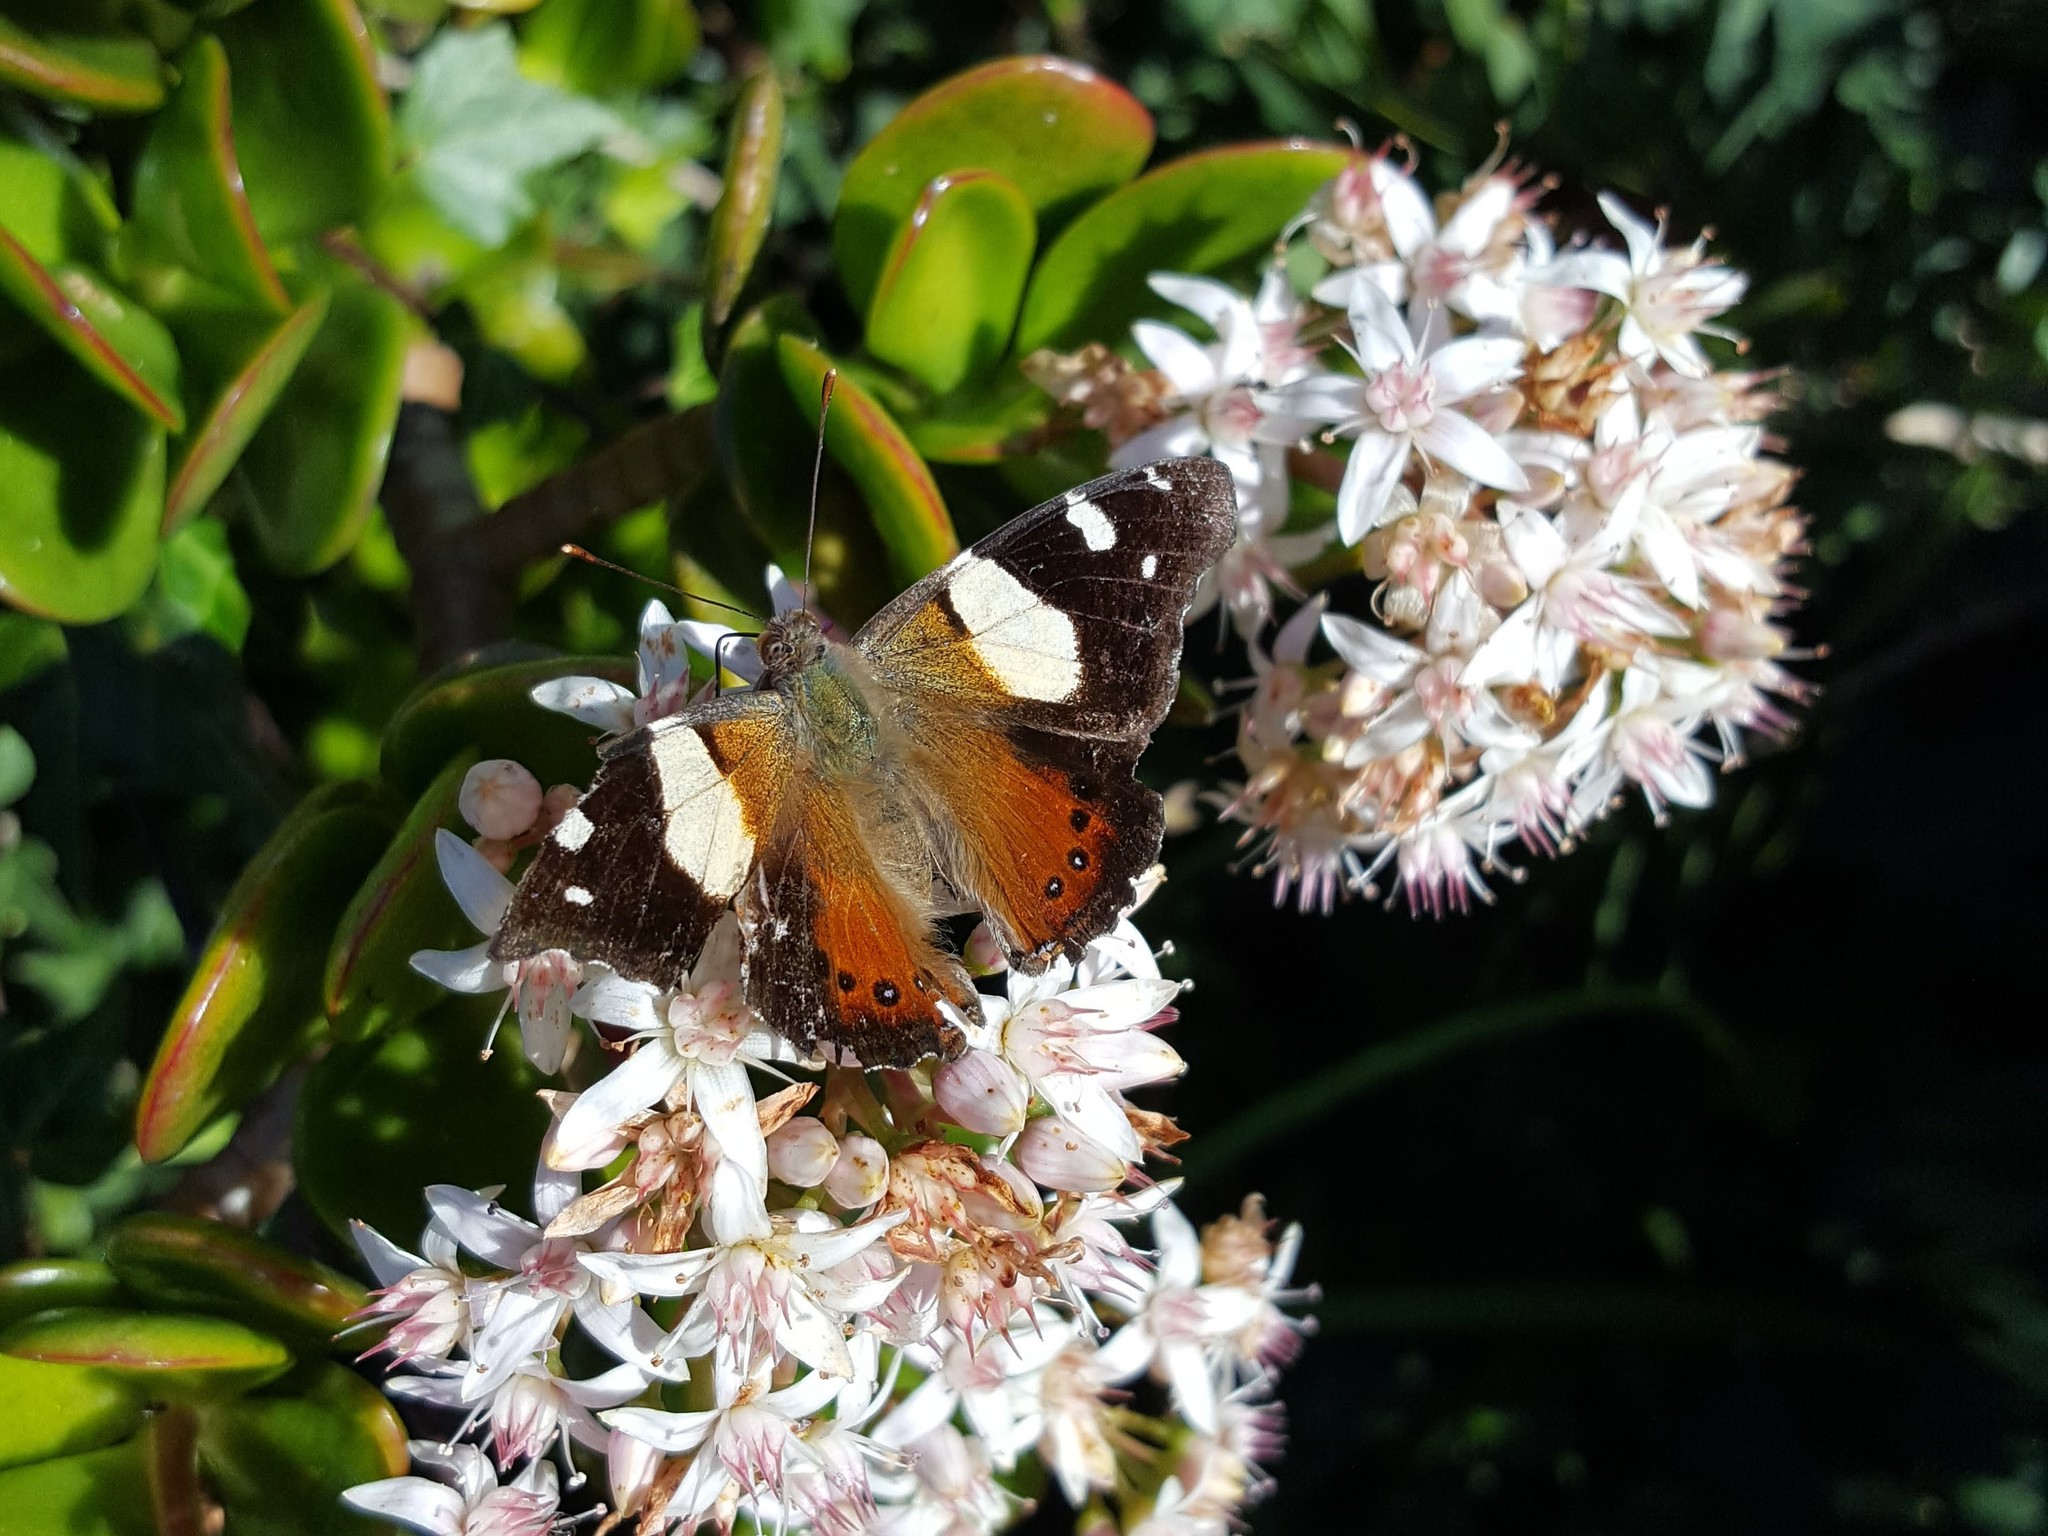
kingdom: Animalia
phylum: Arthropoda
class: Insecta
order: Lepidoptera
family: Nymphalidae
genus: Vanessa
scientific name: Vanessa itea
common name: Yellow admiral
